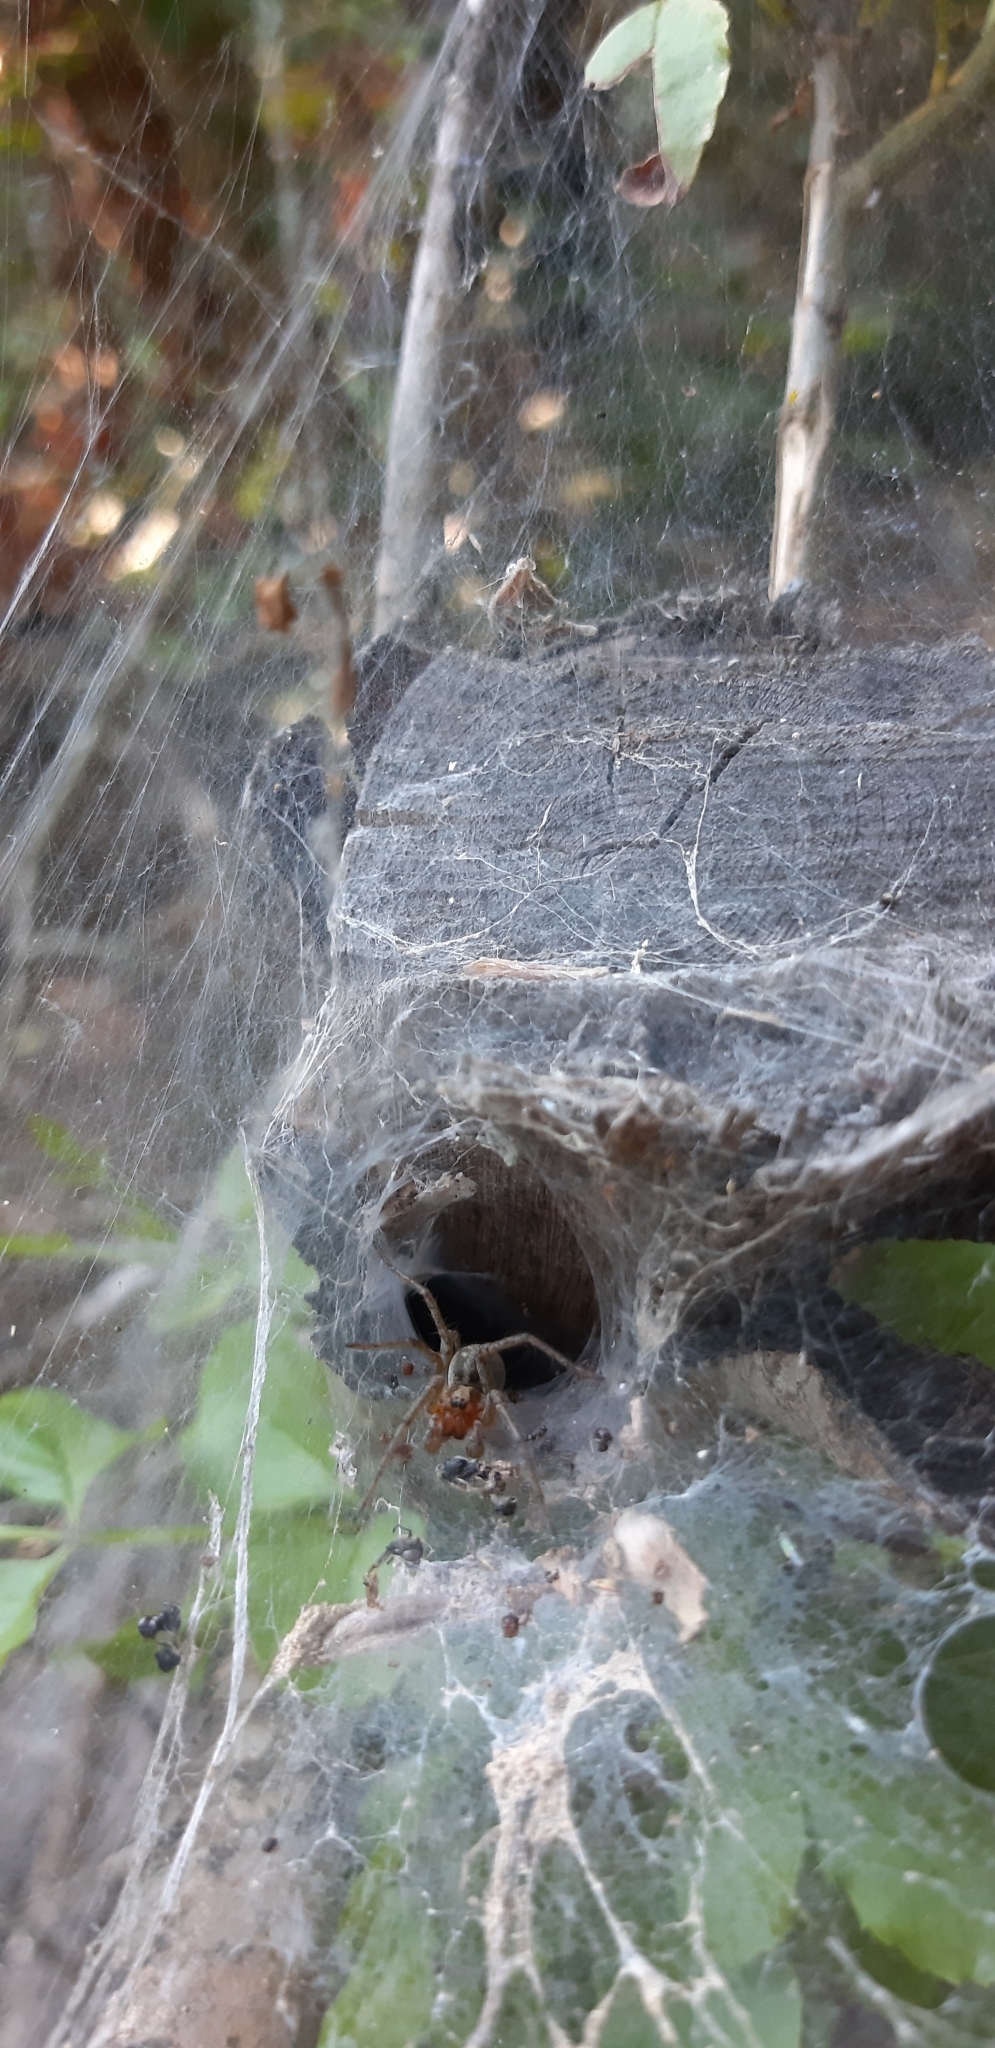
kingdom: Animalia
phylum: Arthropoda
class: Arachnida
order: Araneae
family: Agelenidae
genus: Agelena
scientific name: Agelena labyrinthica
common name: Labyrinth spider
